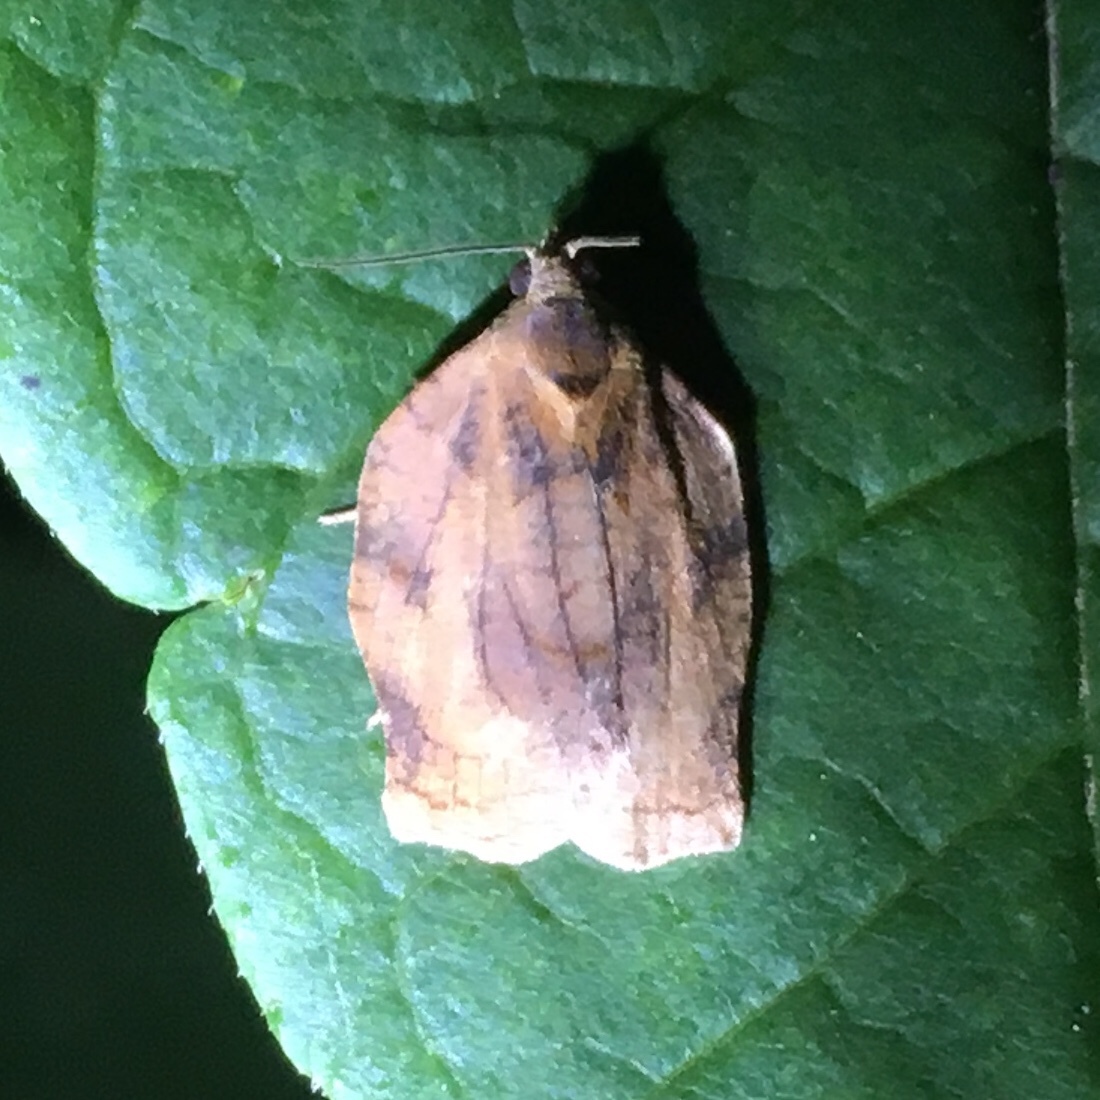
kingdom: Animalia
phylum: Arthropoda
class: Insecta
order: Lepidoptera
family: Tortricidae
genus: Archips
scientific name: Archips purpurana
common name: Omnivorous leafroller
